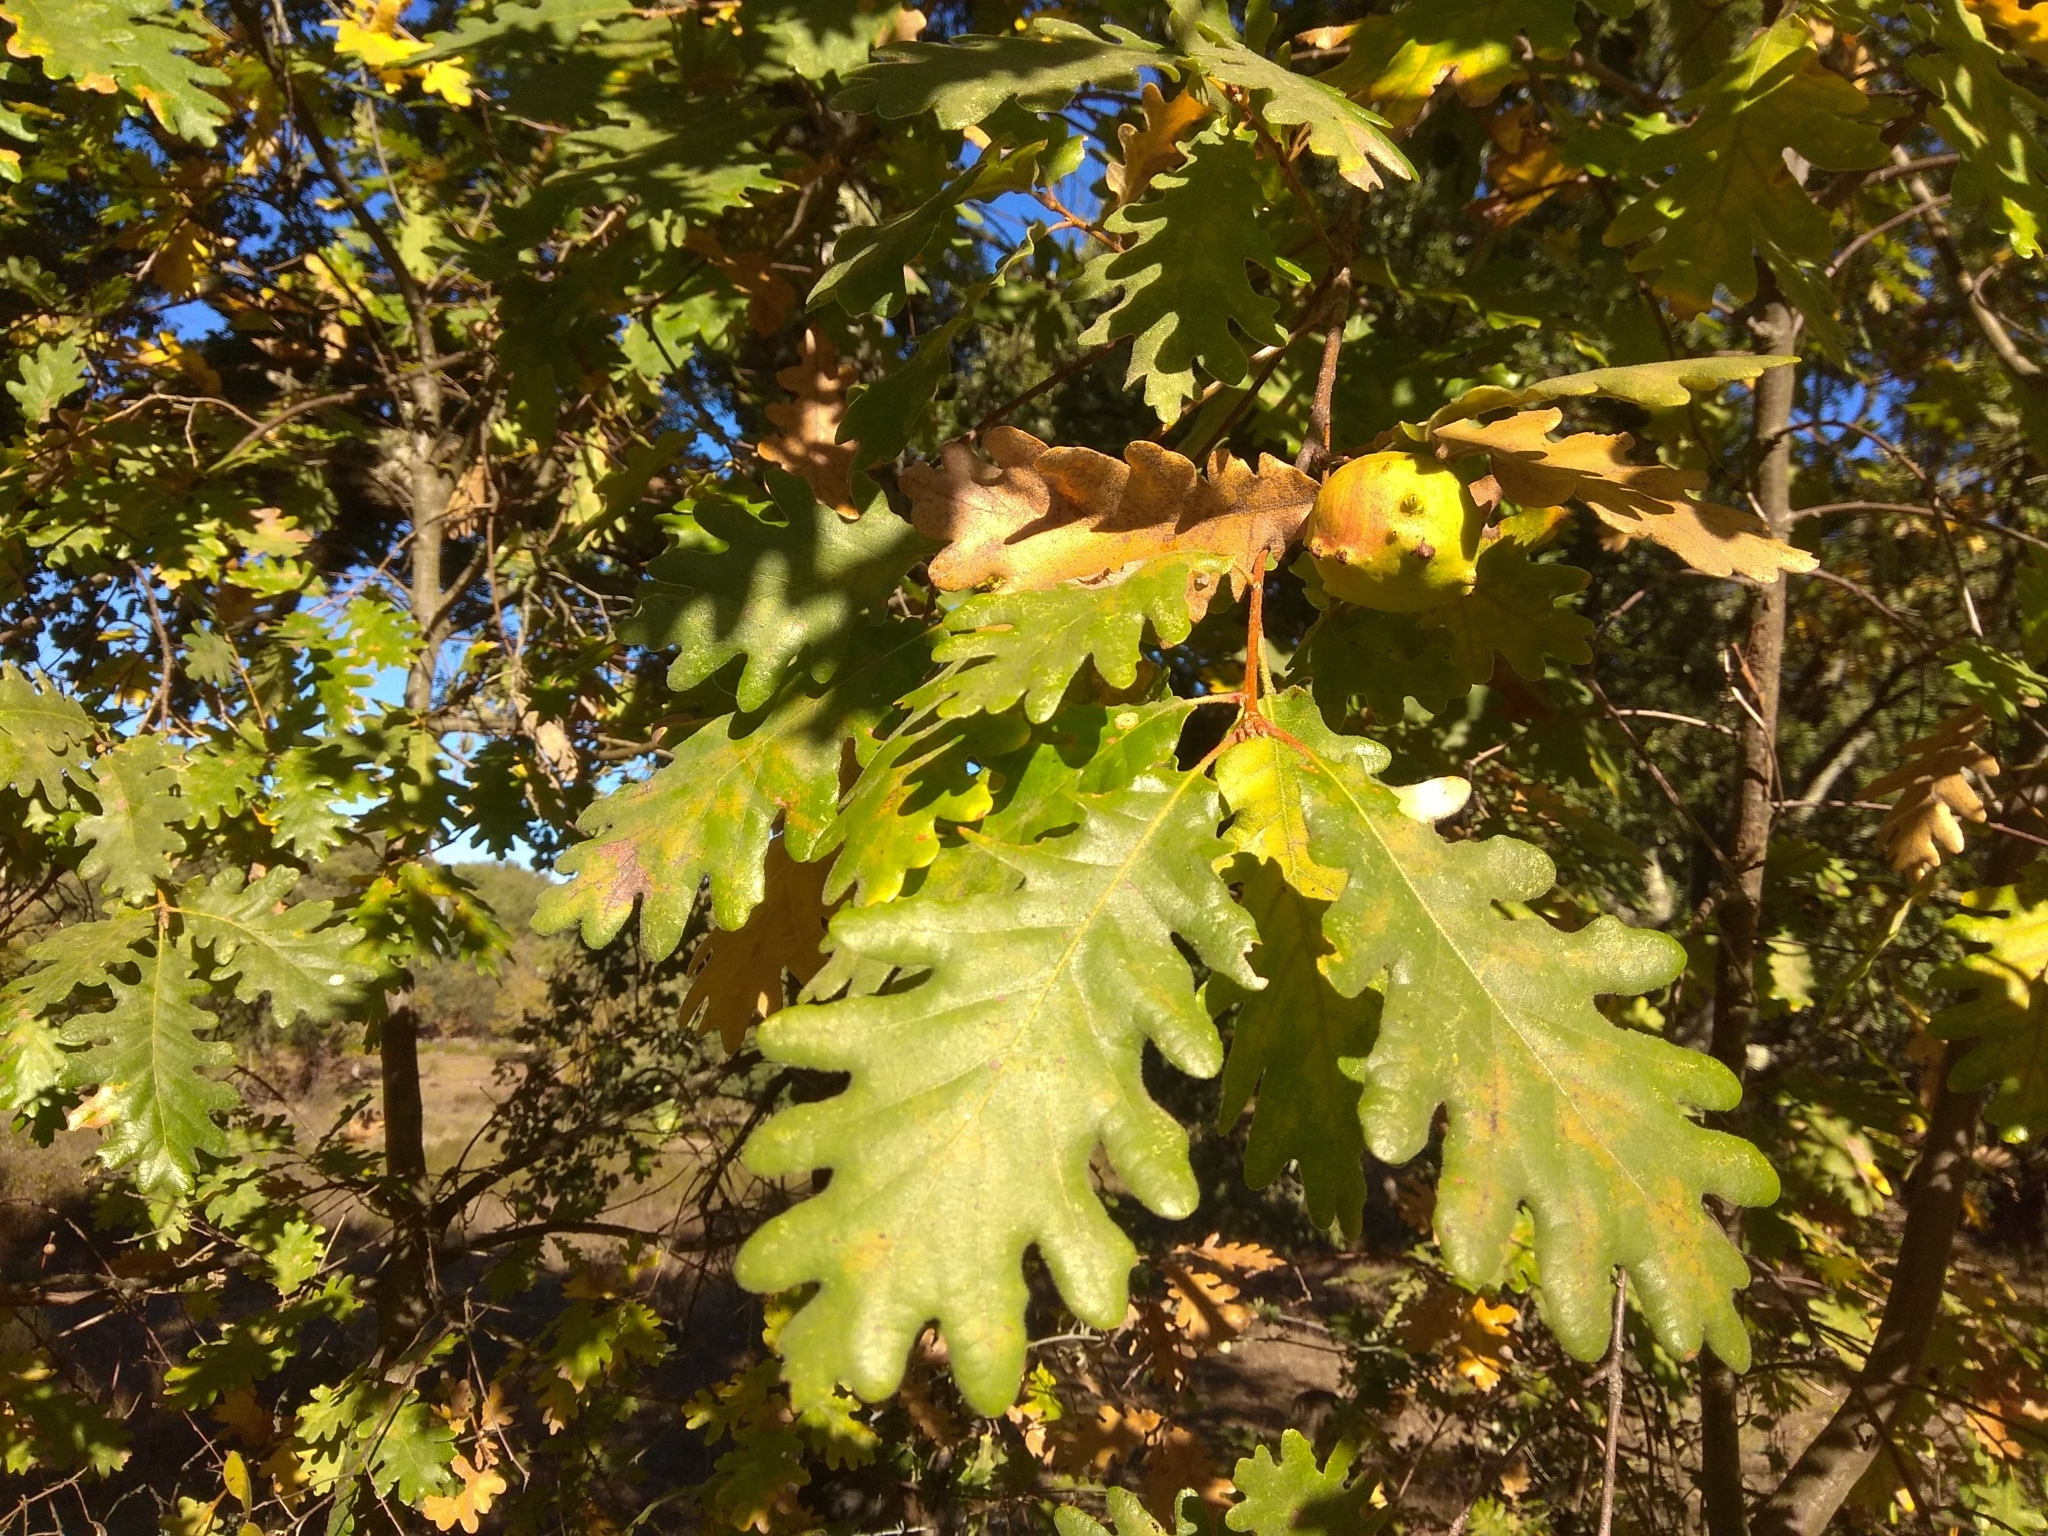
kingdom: Plantae
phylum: Tracheophyta
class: Magnoliopsida
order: Fagales
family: Fagaceae
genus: Quercus
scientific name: Quercus pyrenaica
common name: Pyrenean oak
